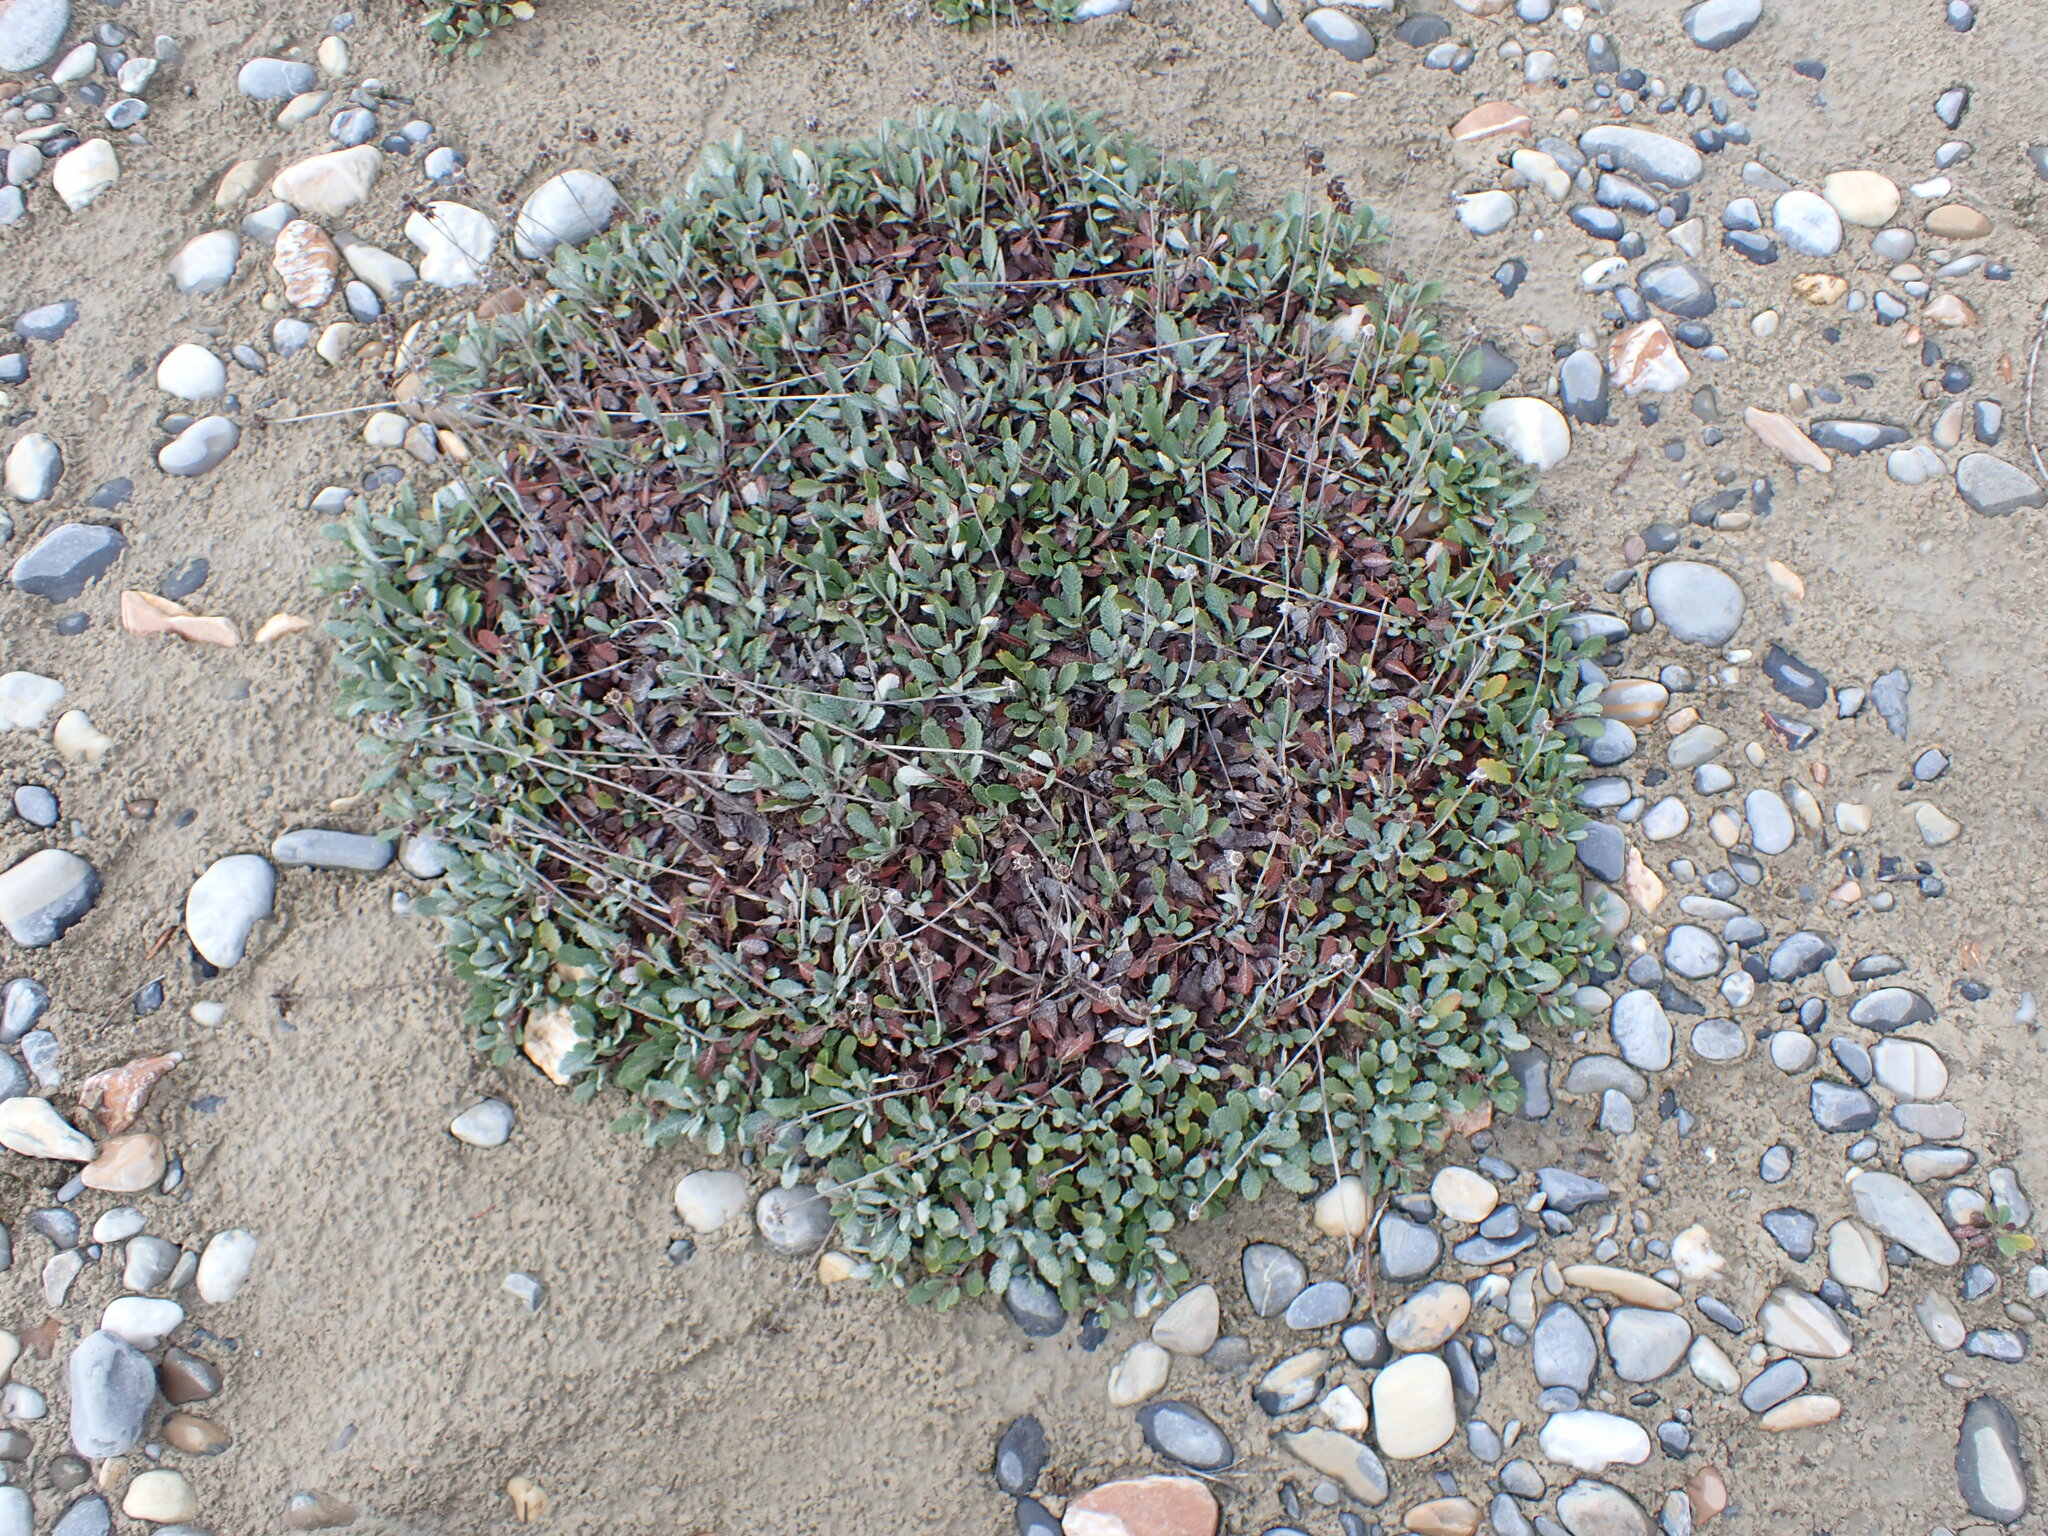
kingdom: Plantae
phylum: Tracheophyta
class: Magnoliopsida
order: Rosales
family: Rosaceae
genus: Dryas
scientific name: Dryas drummondii
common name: Drummond's dryad
